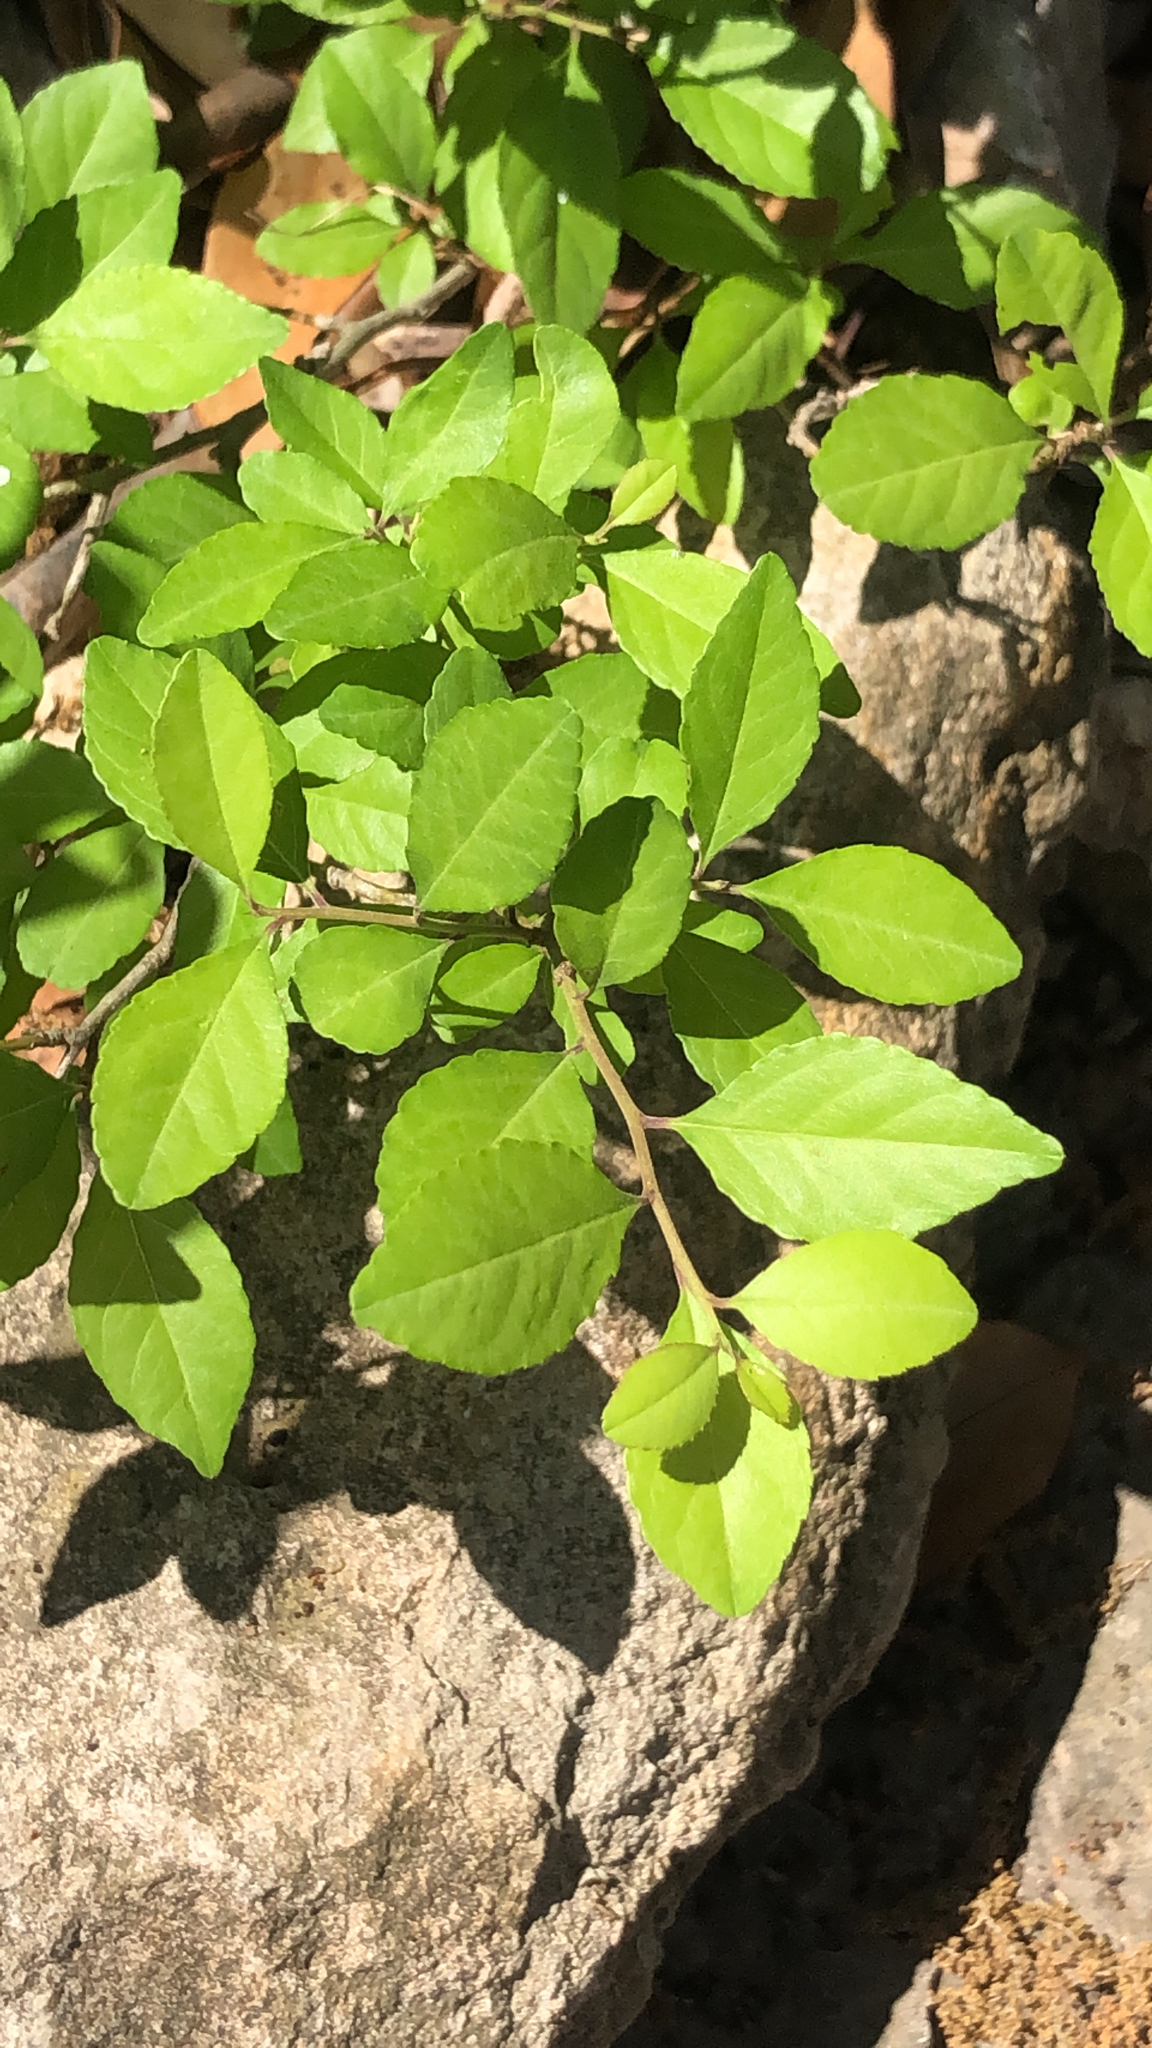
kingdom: Plantae
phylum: Tracheophyta
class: Magnoliopsida
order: Aquifoliales
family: Aquifoliaceae
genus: Ilex
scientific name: Ilex decidua
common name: Possum-haw
